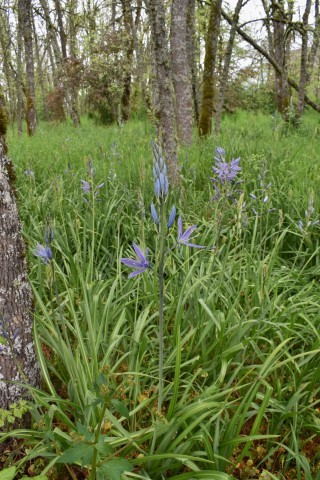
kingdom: Plantae
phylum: Tracheophyta
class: Liliopsida
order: Asparagales
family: Asparagaceae
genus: Camassia
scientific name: Camassia leichtlinii
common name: Leichtlin's camas
